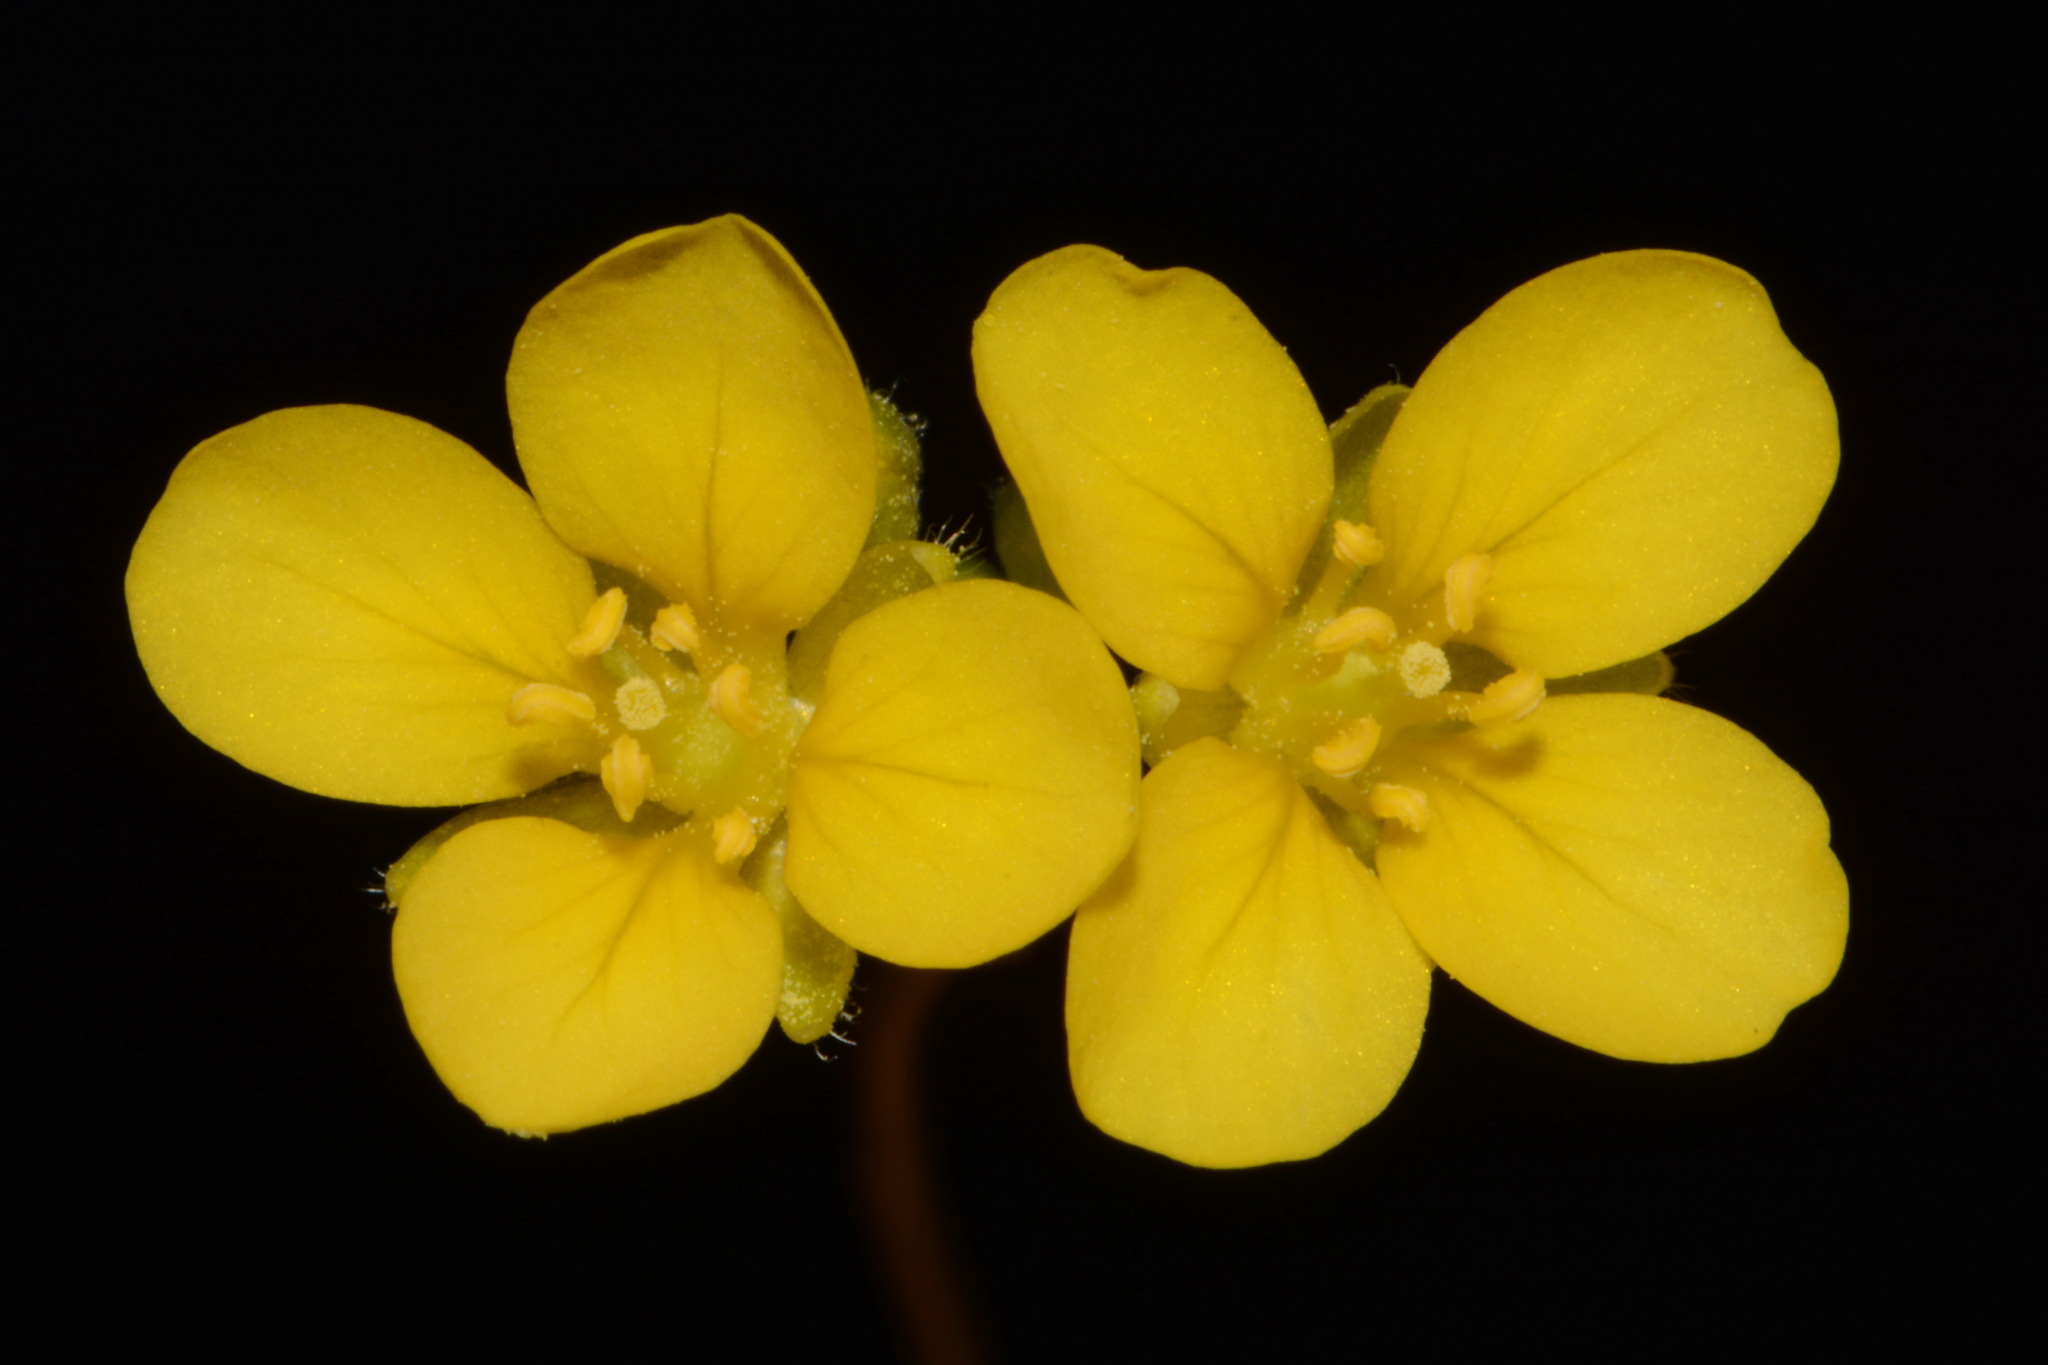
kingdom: Plantae
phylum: Tracheophyta
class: Magnoliopsida
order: Brassicales
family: Brassicaceae
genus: Paysonia
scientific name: Paysonia densipila
